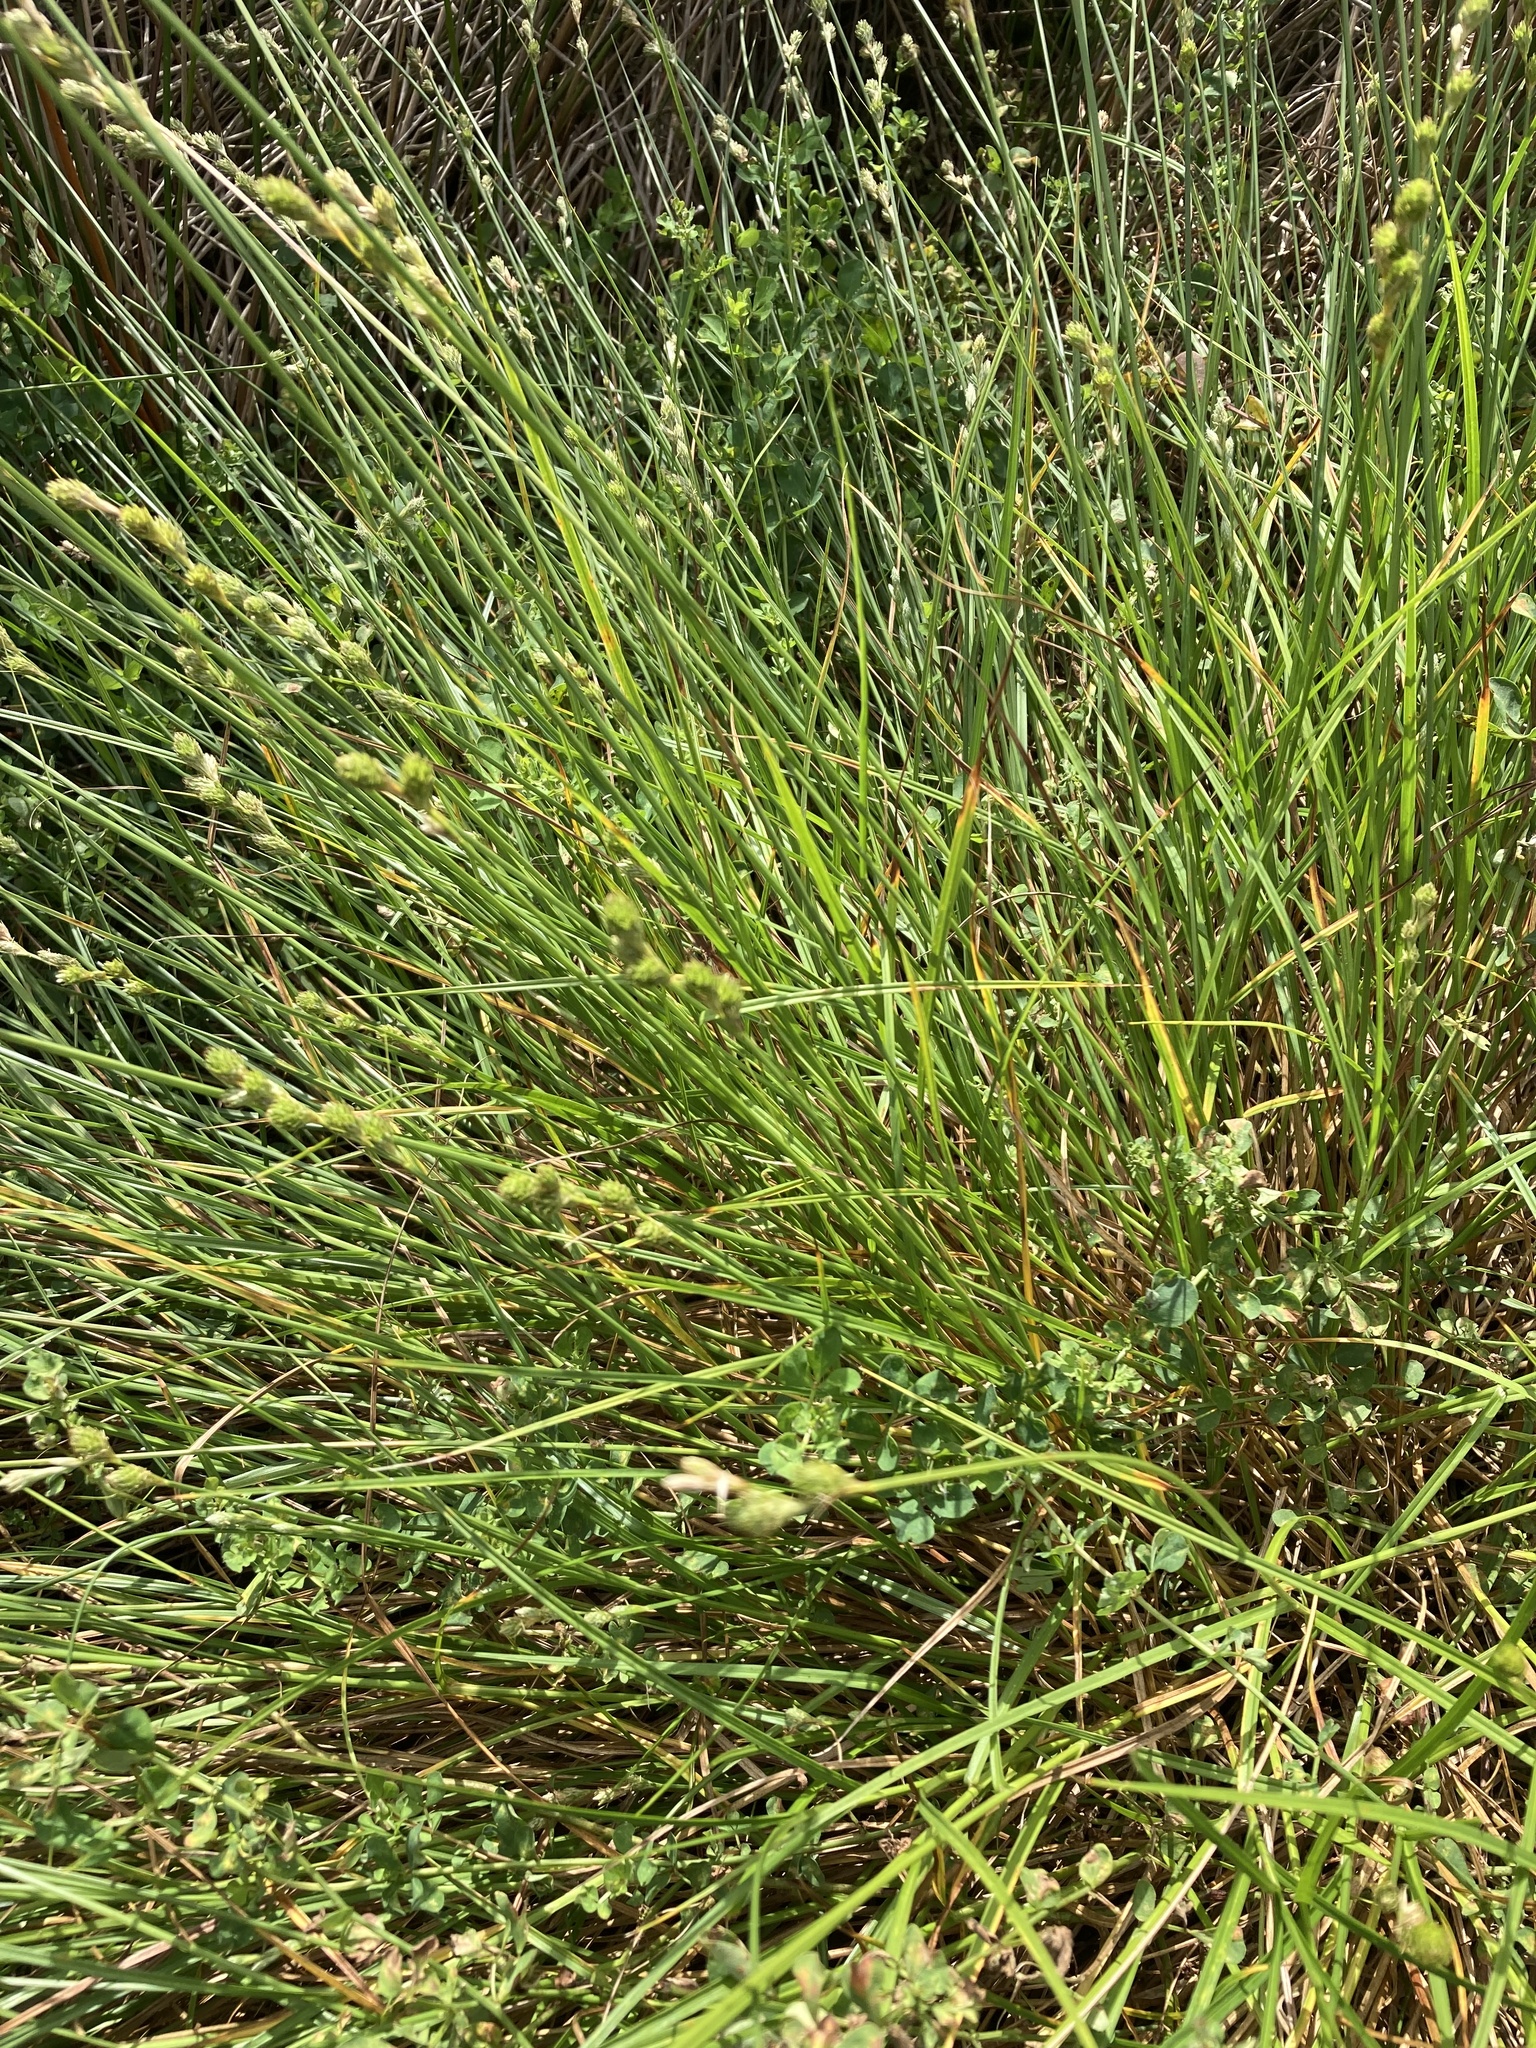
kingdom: Plantae
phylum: Tracheophyta
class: Liliopsida
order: Poales
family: Cyperaceae
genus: Carex
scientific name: Carex longii
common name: Long's sedge
